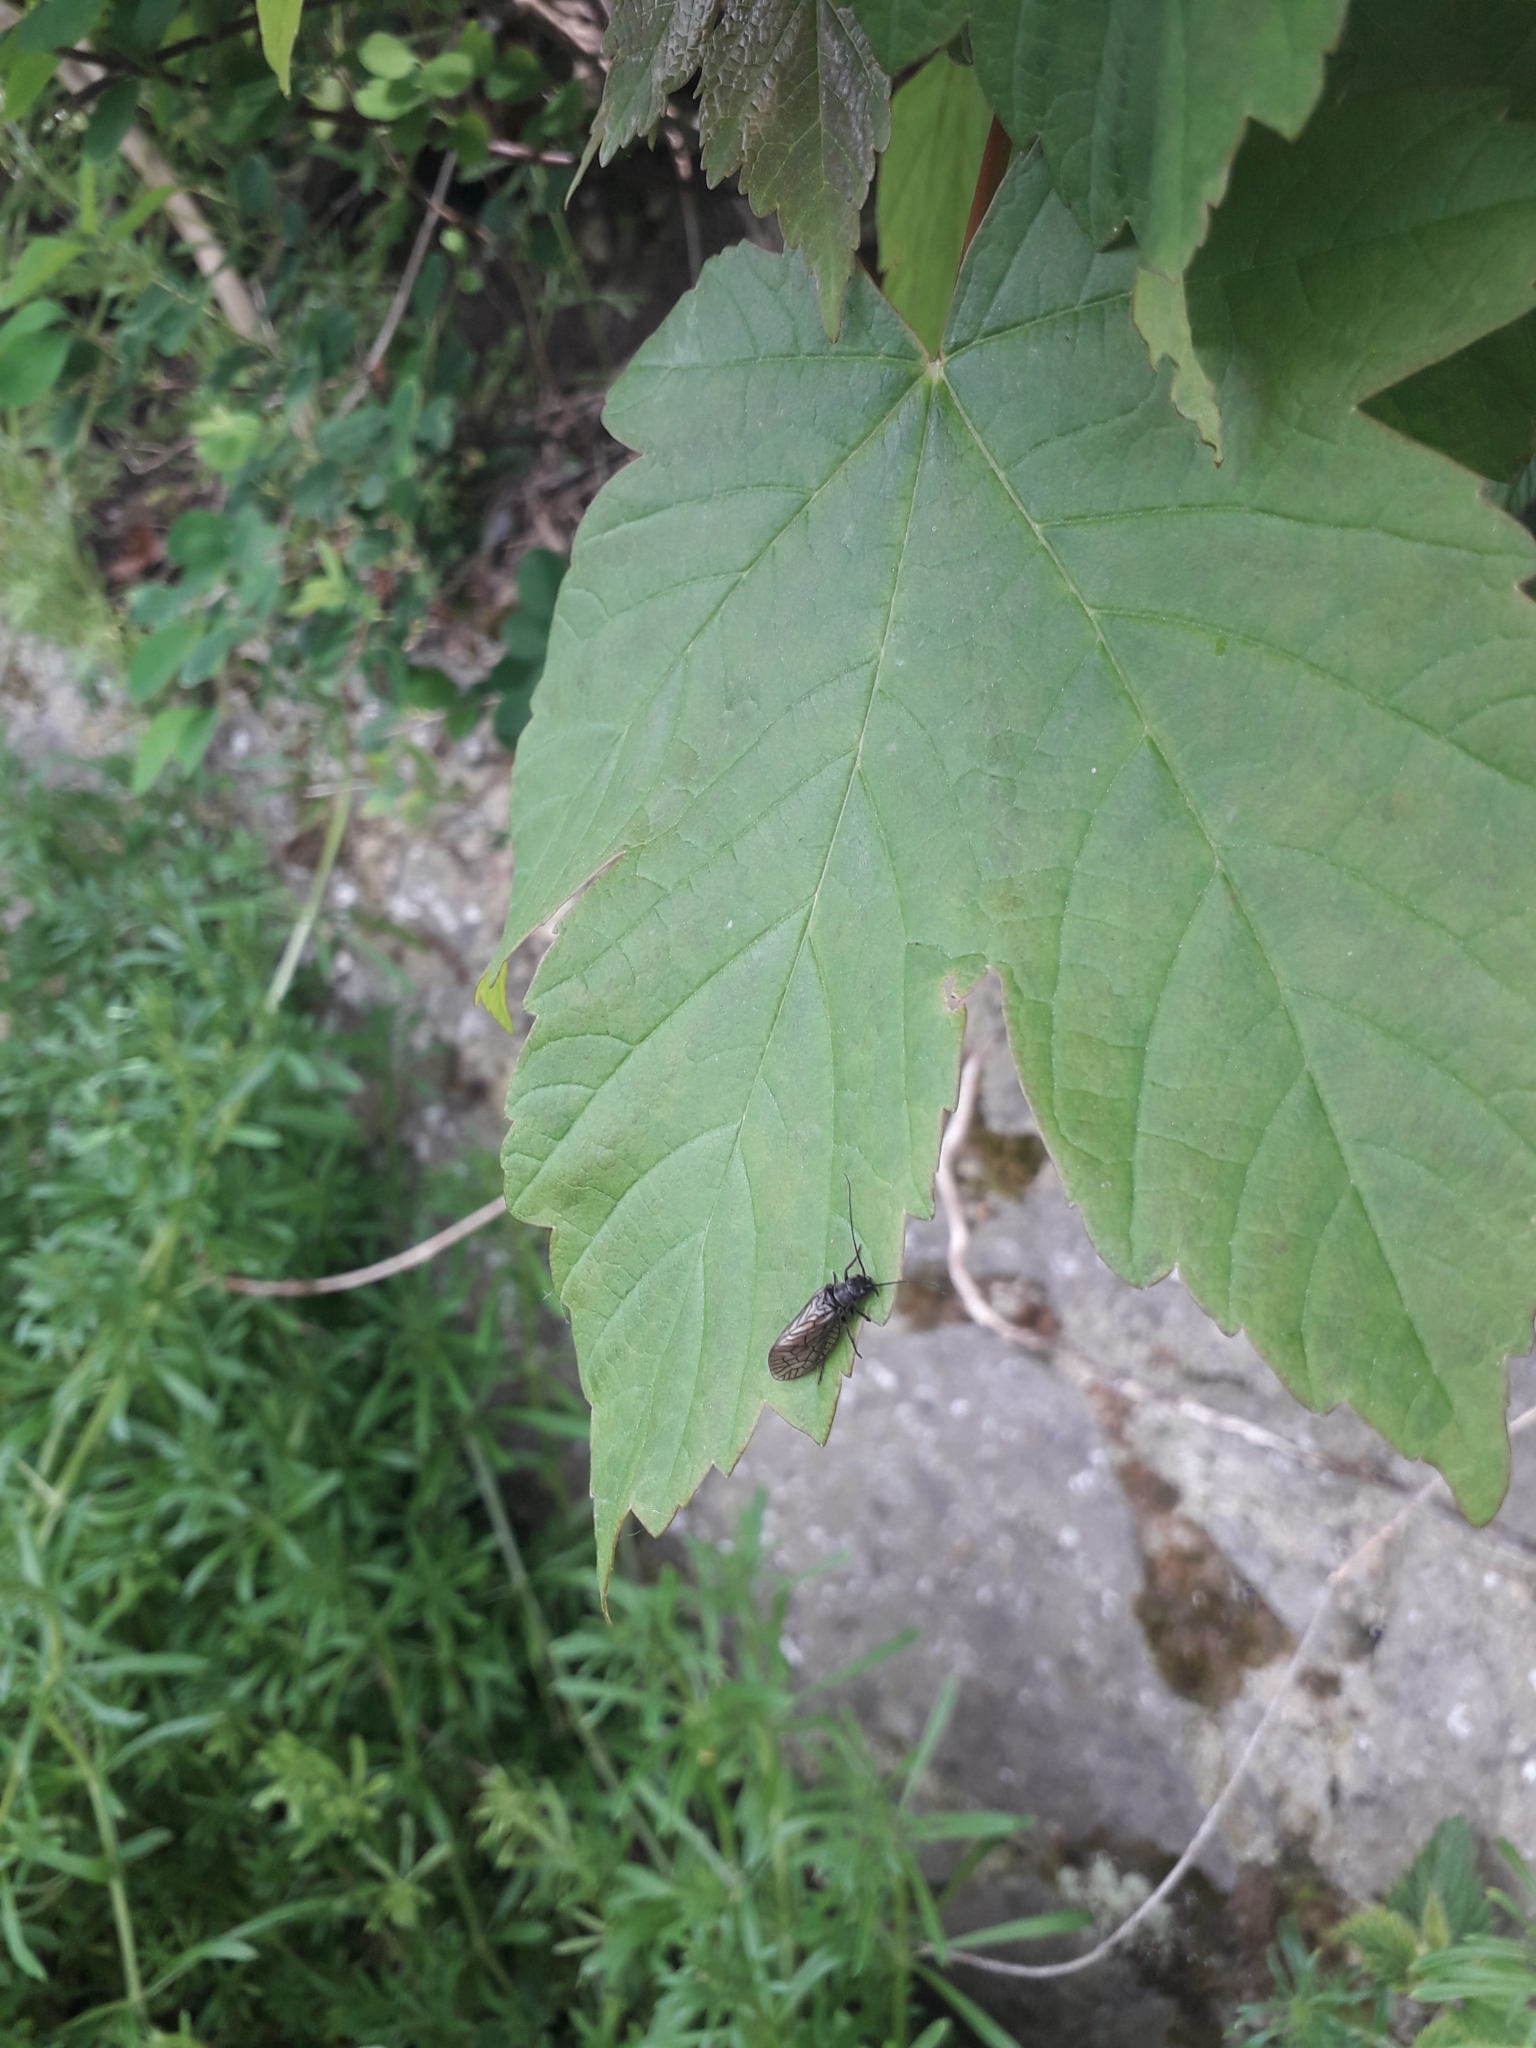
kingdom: Animalia
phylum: Arthropoda
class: Insecta
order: Megaloptera
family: Sialidae
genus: Sialis
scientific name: Sialis
